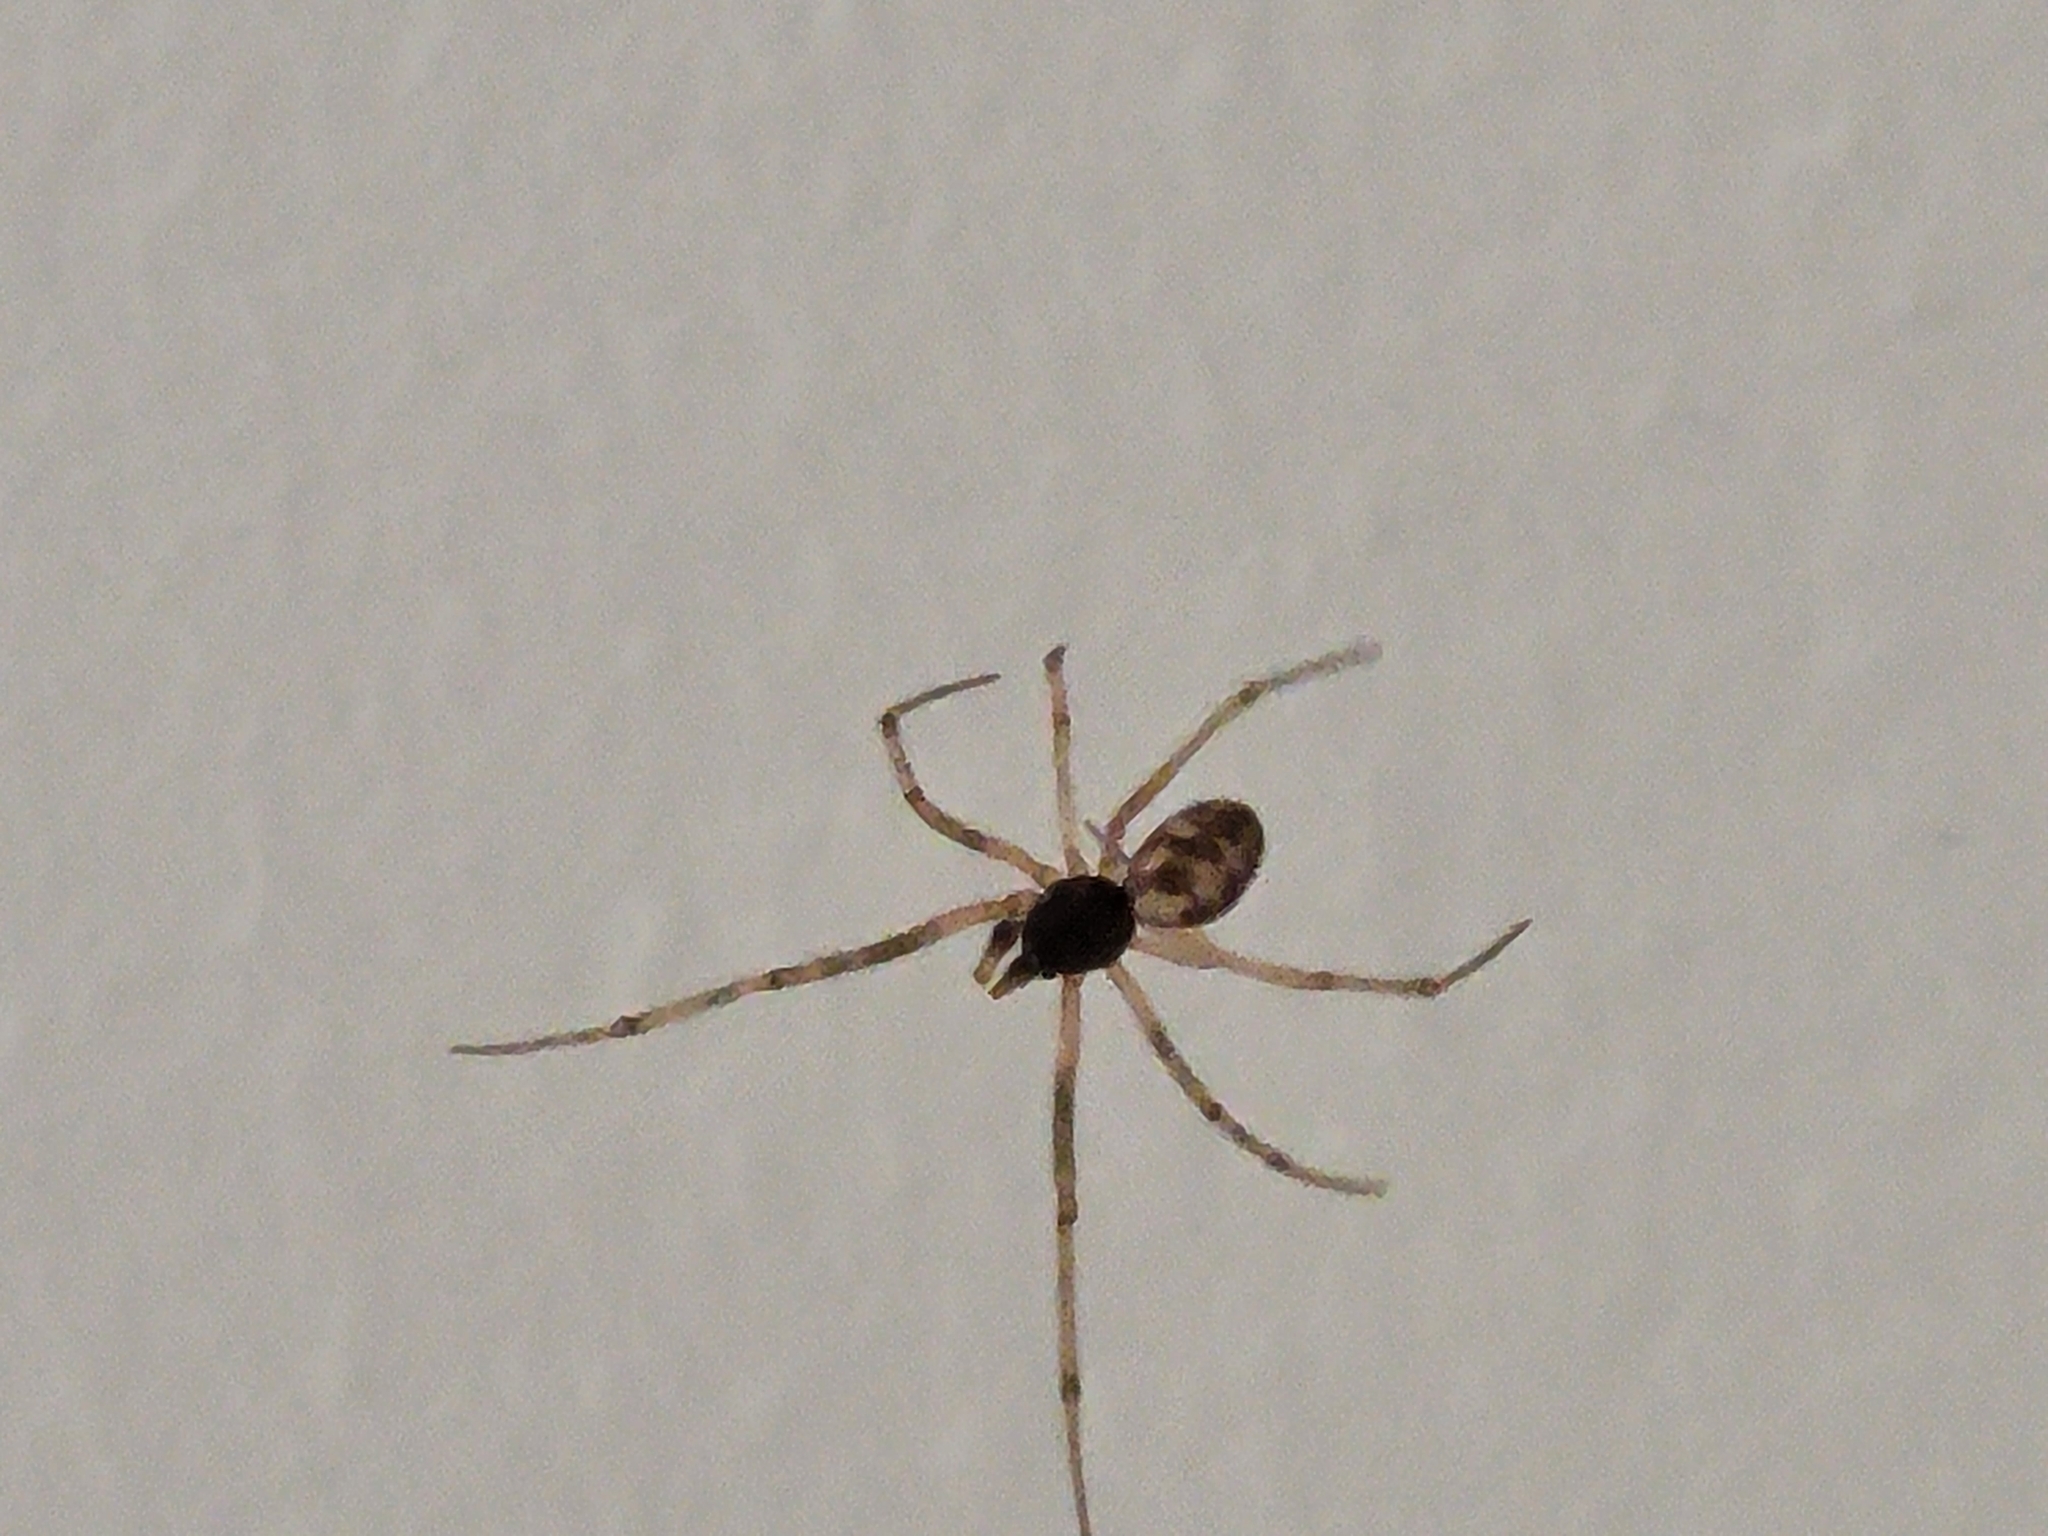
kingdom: Animalia
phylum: Arthropoda
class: Arachnida
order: Araneae
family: Theridiidae
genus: Steatoda
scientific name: Steatoda triangulosa
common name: Triangulate bud spider
